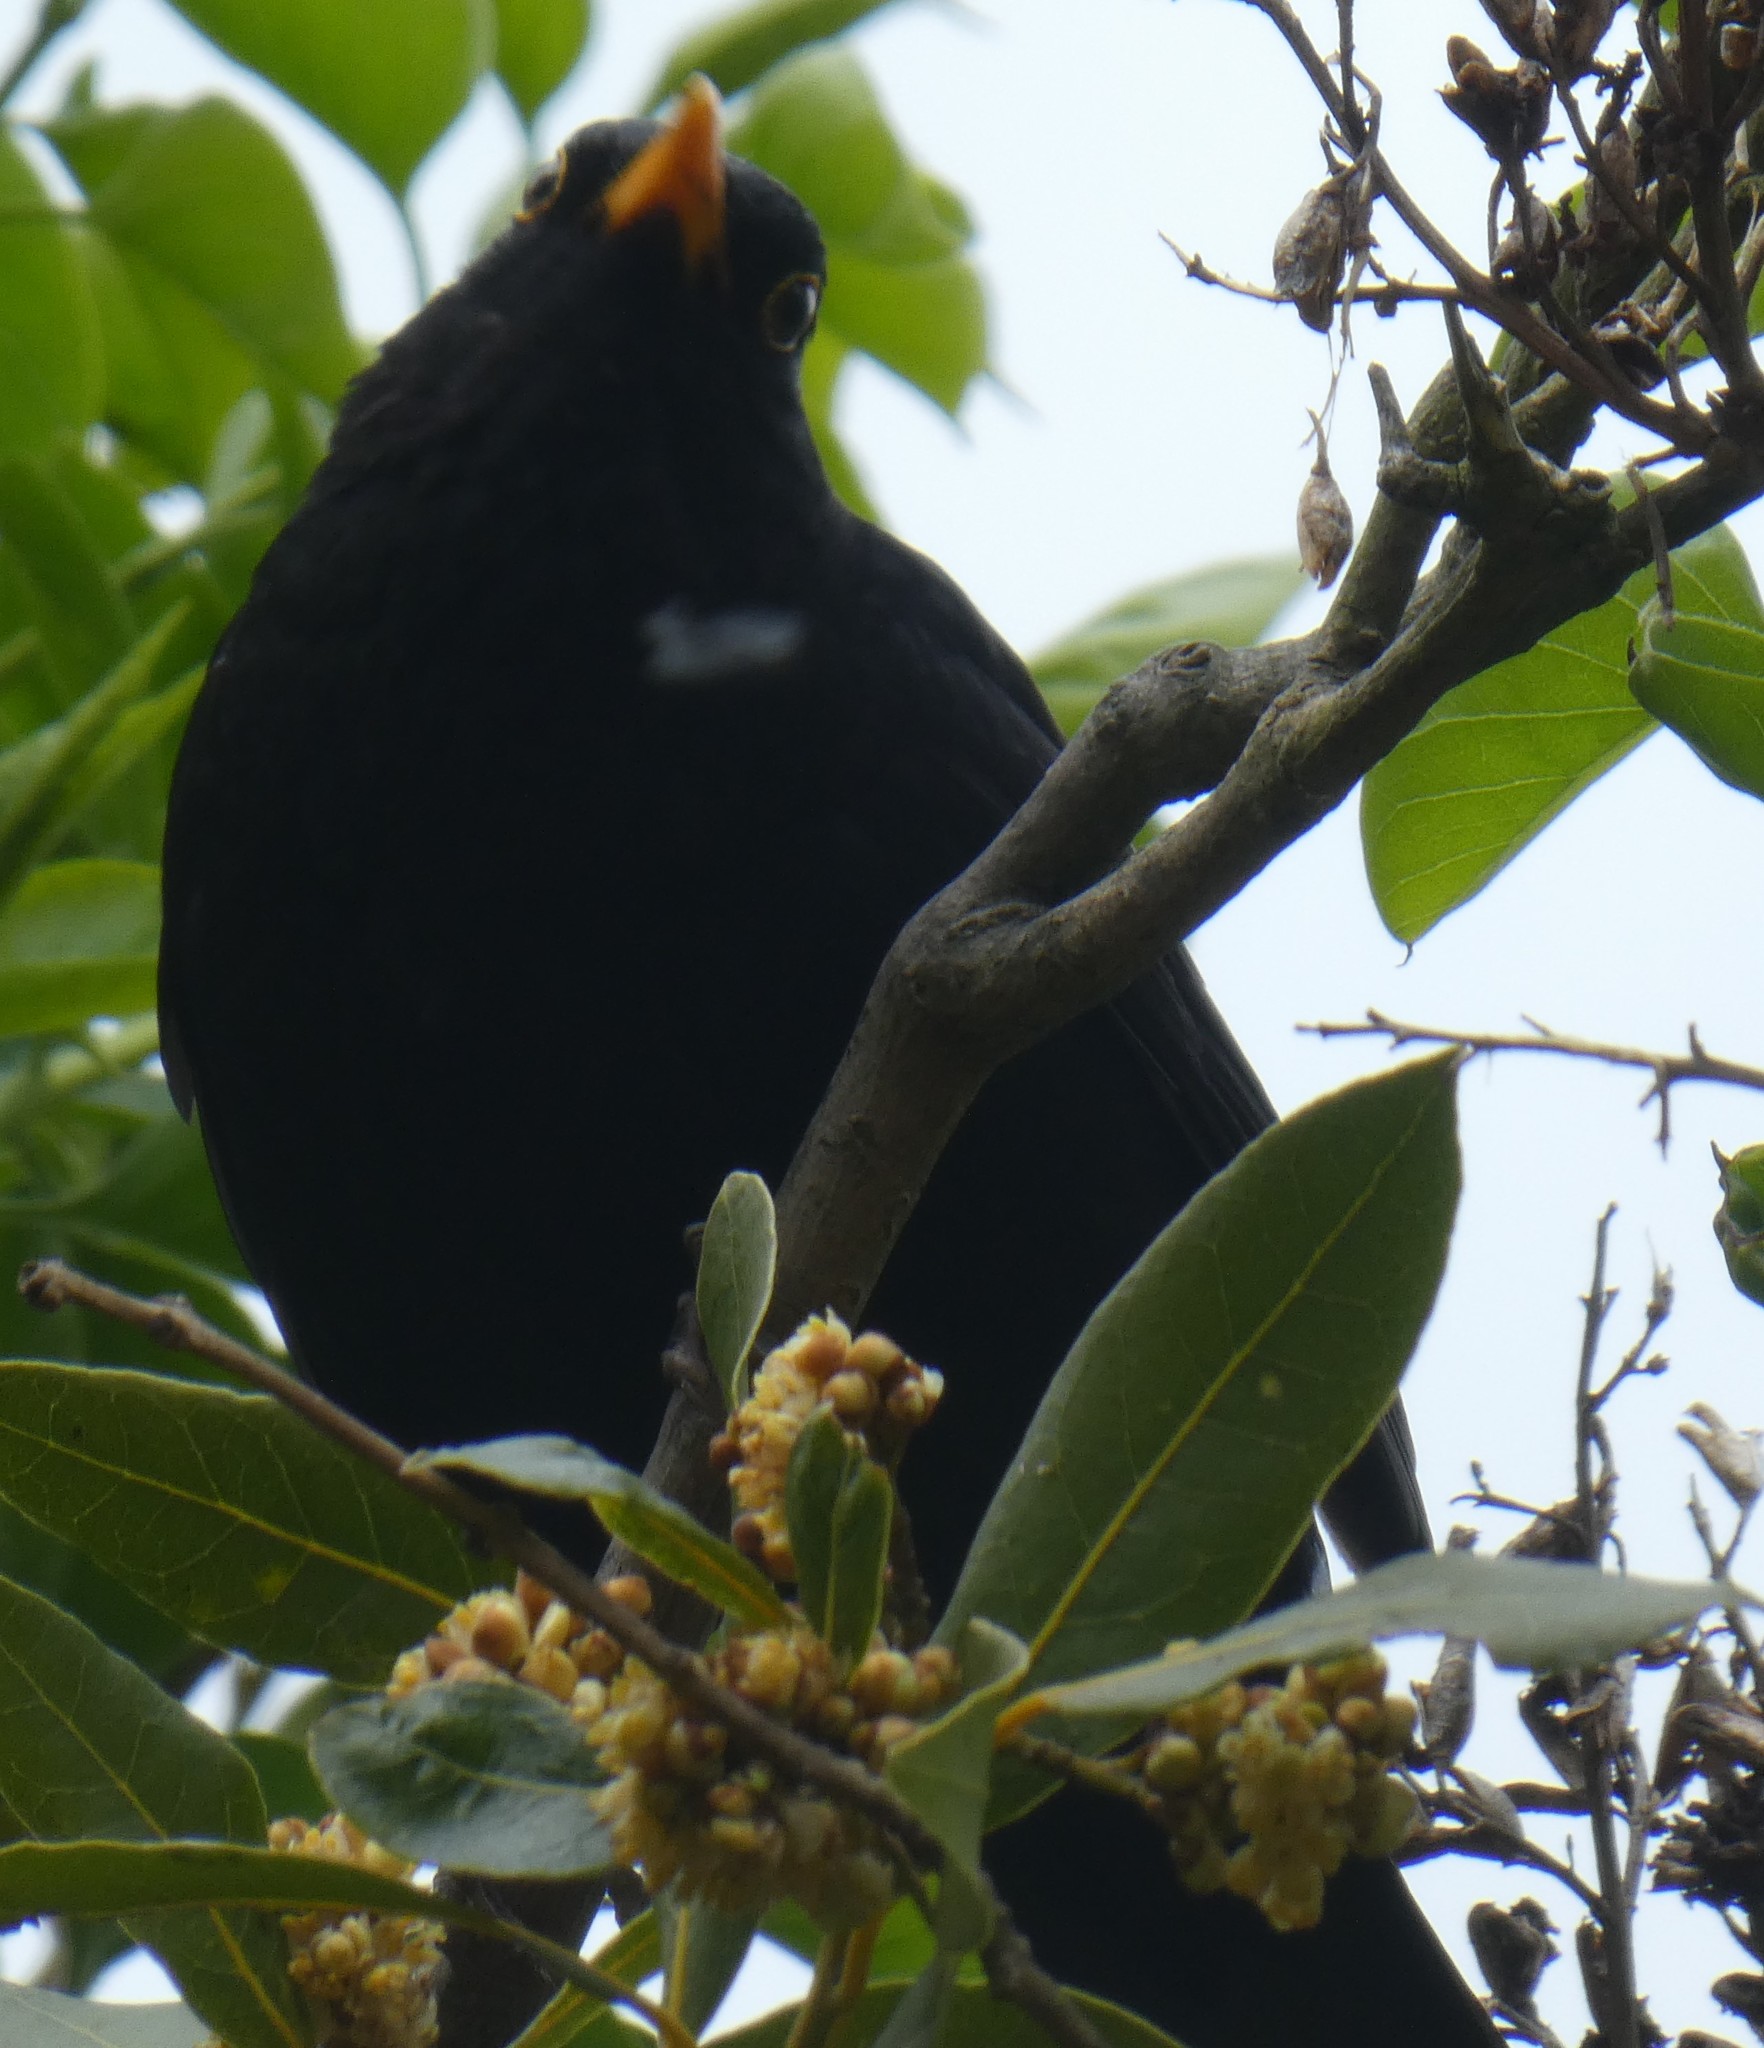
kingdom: Animalia
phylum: Chordata
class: Aves
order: Passeriformes
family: Turdidae
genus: Turdus
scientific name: Turdus merula
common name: Common blackbird
